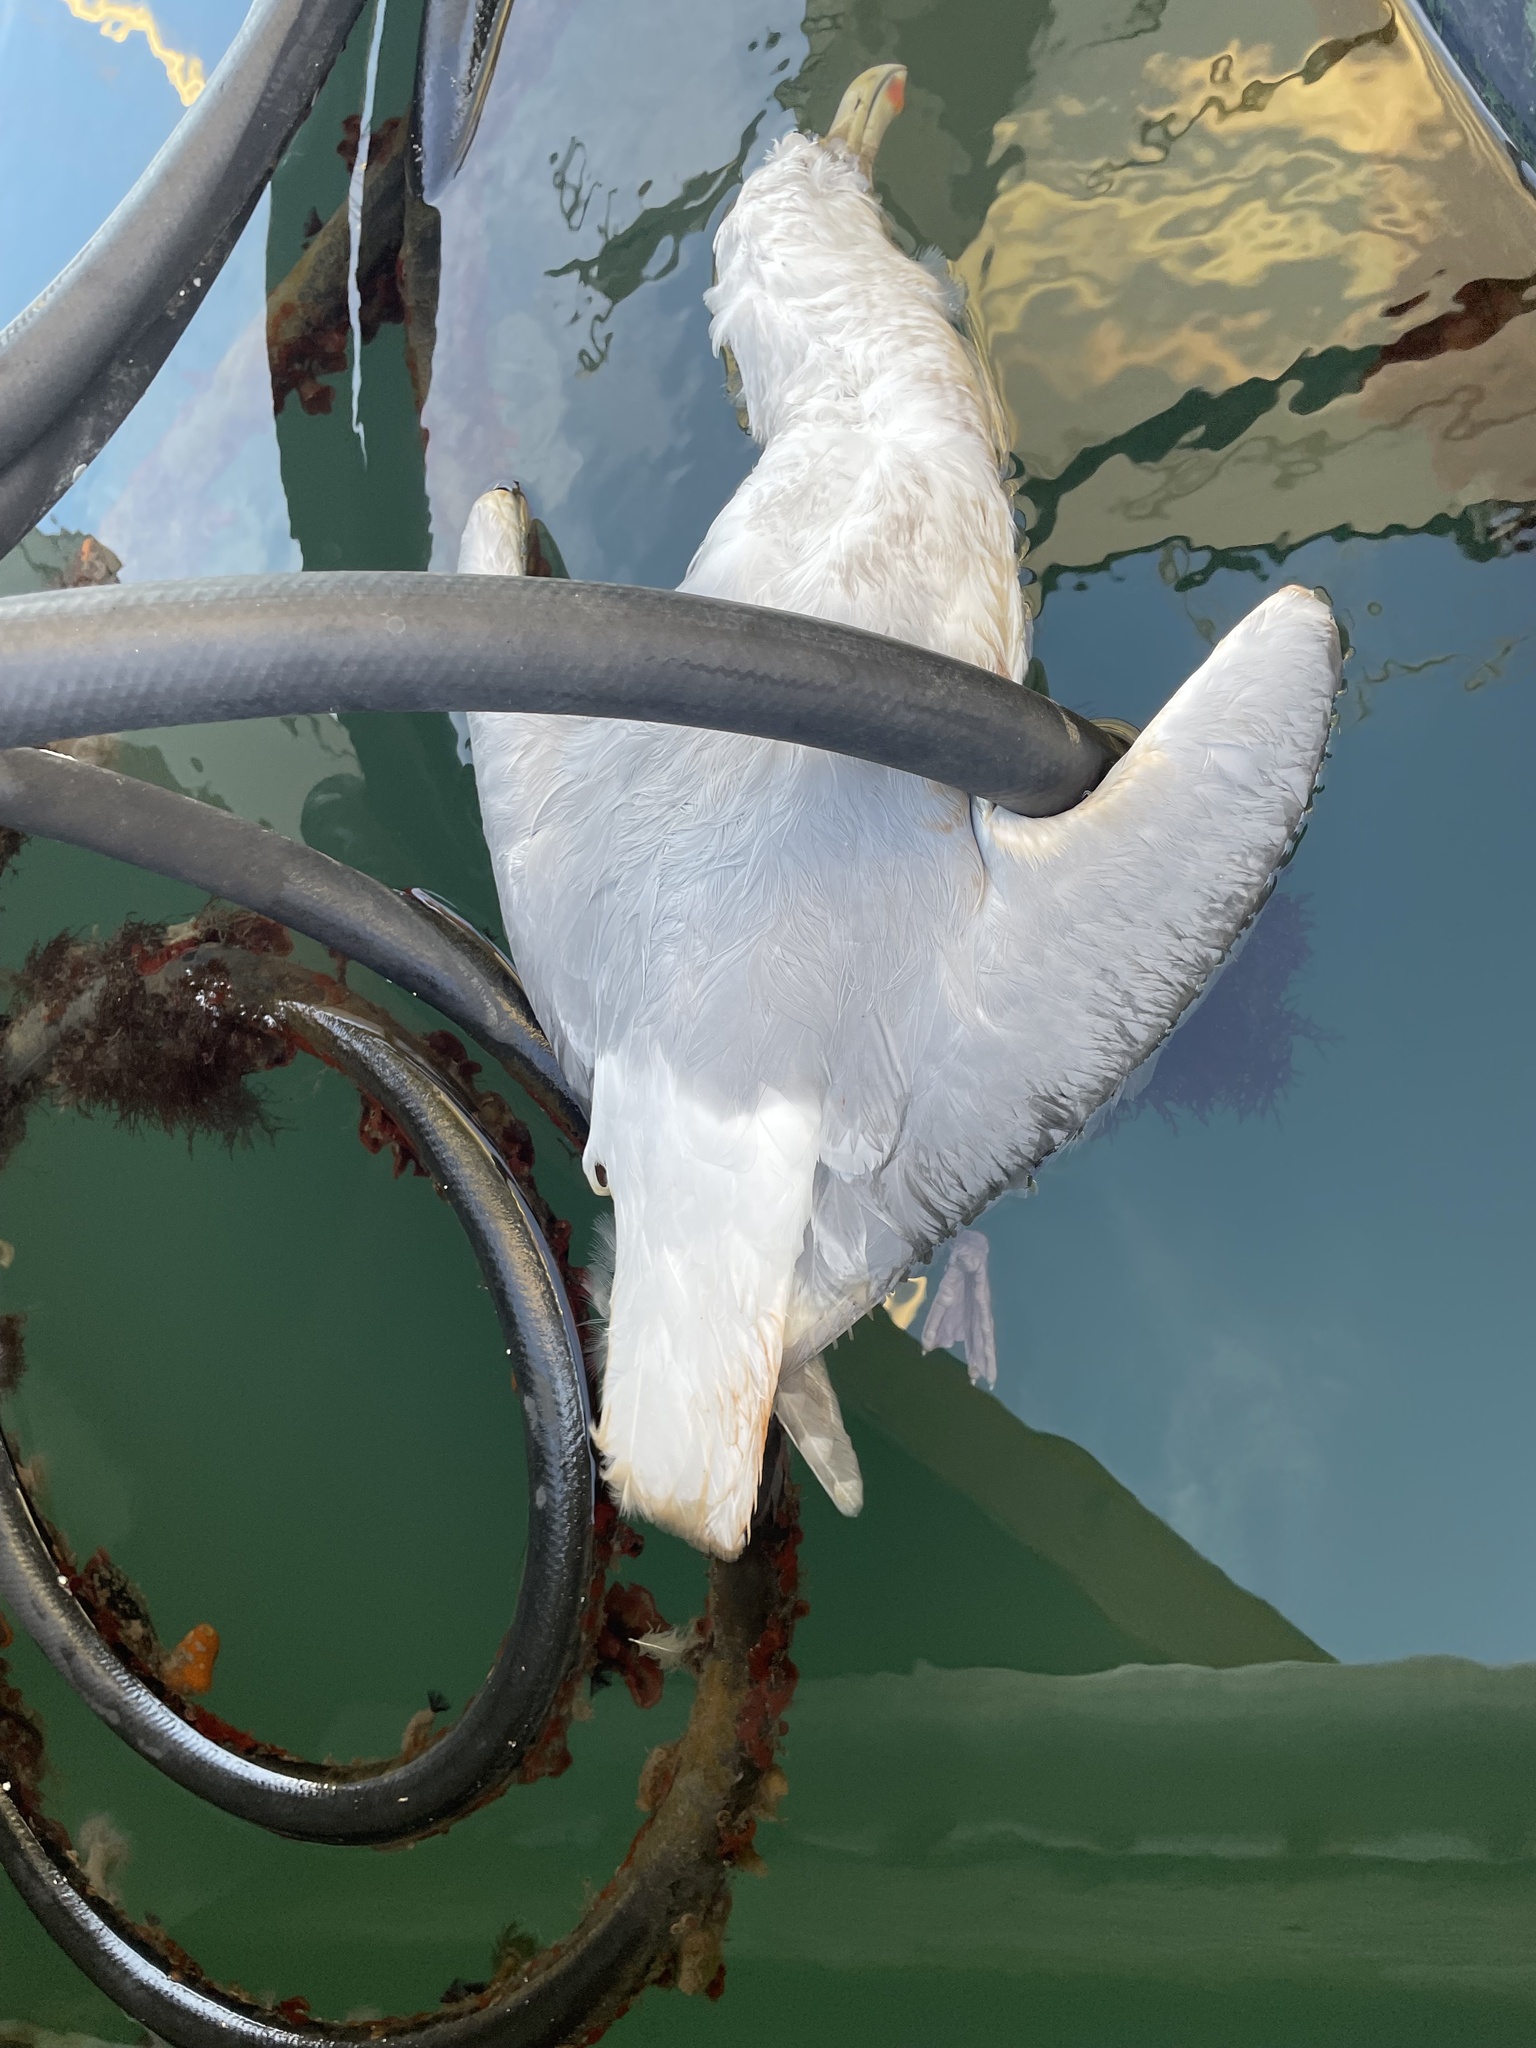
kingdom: Animalia
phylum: Chordata
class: Aves
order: Charadriiformes
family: Laridae
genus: Larus
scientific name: Larus glaucescens
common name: Glaucous-winged gull
